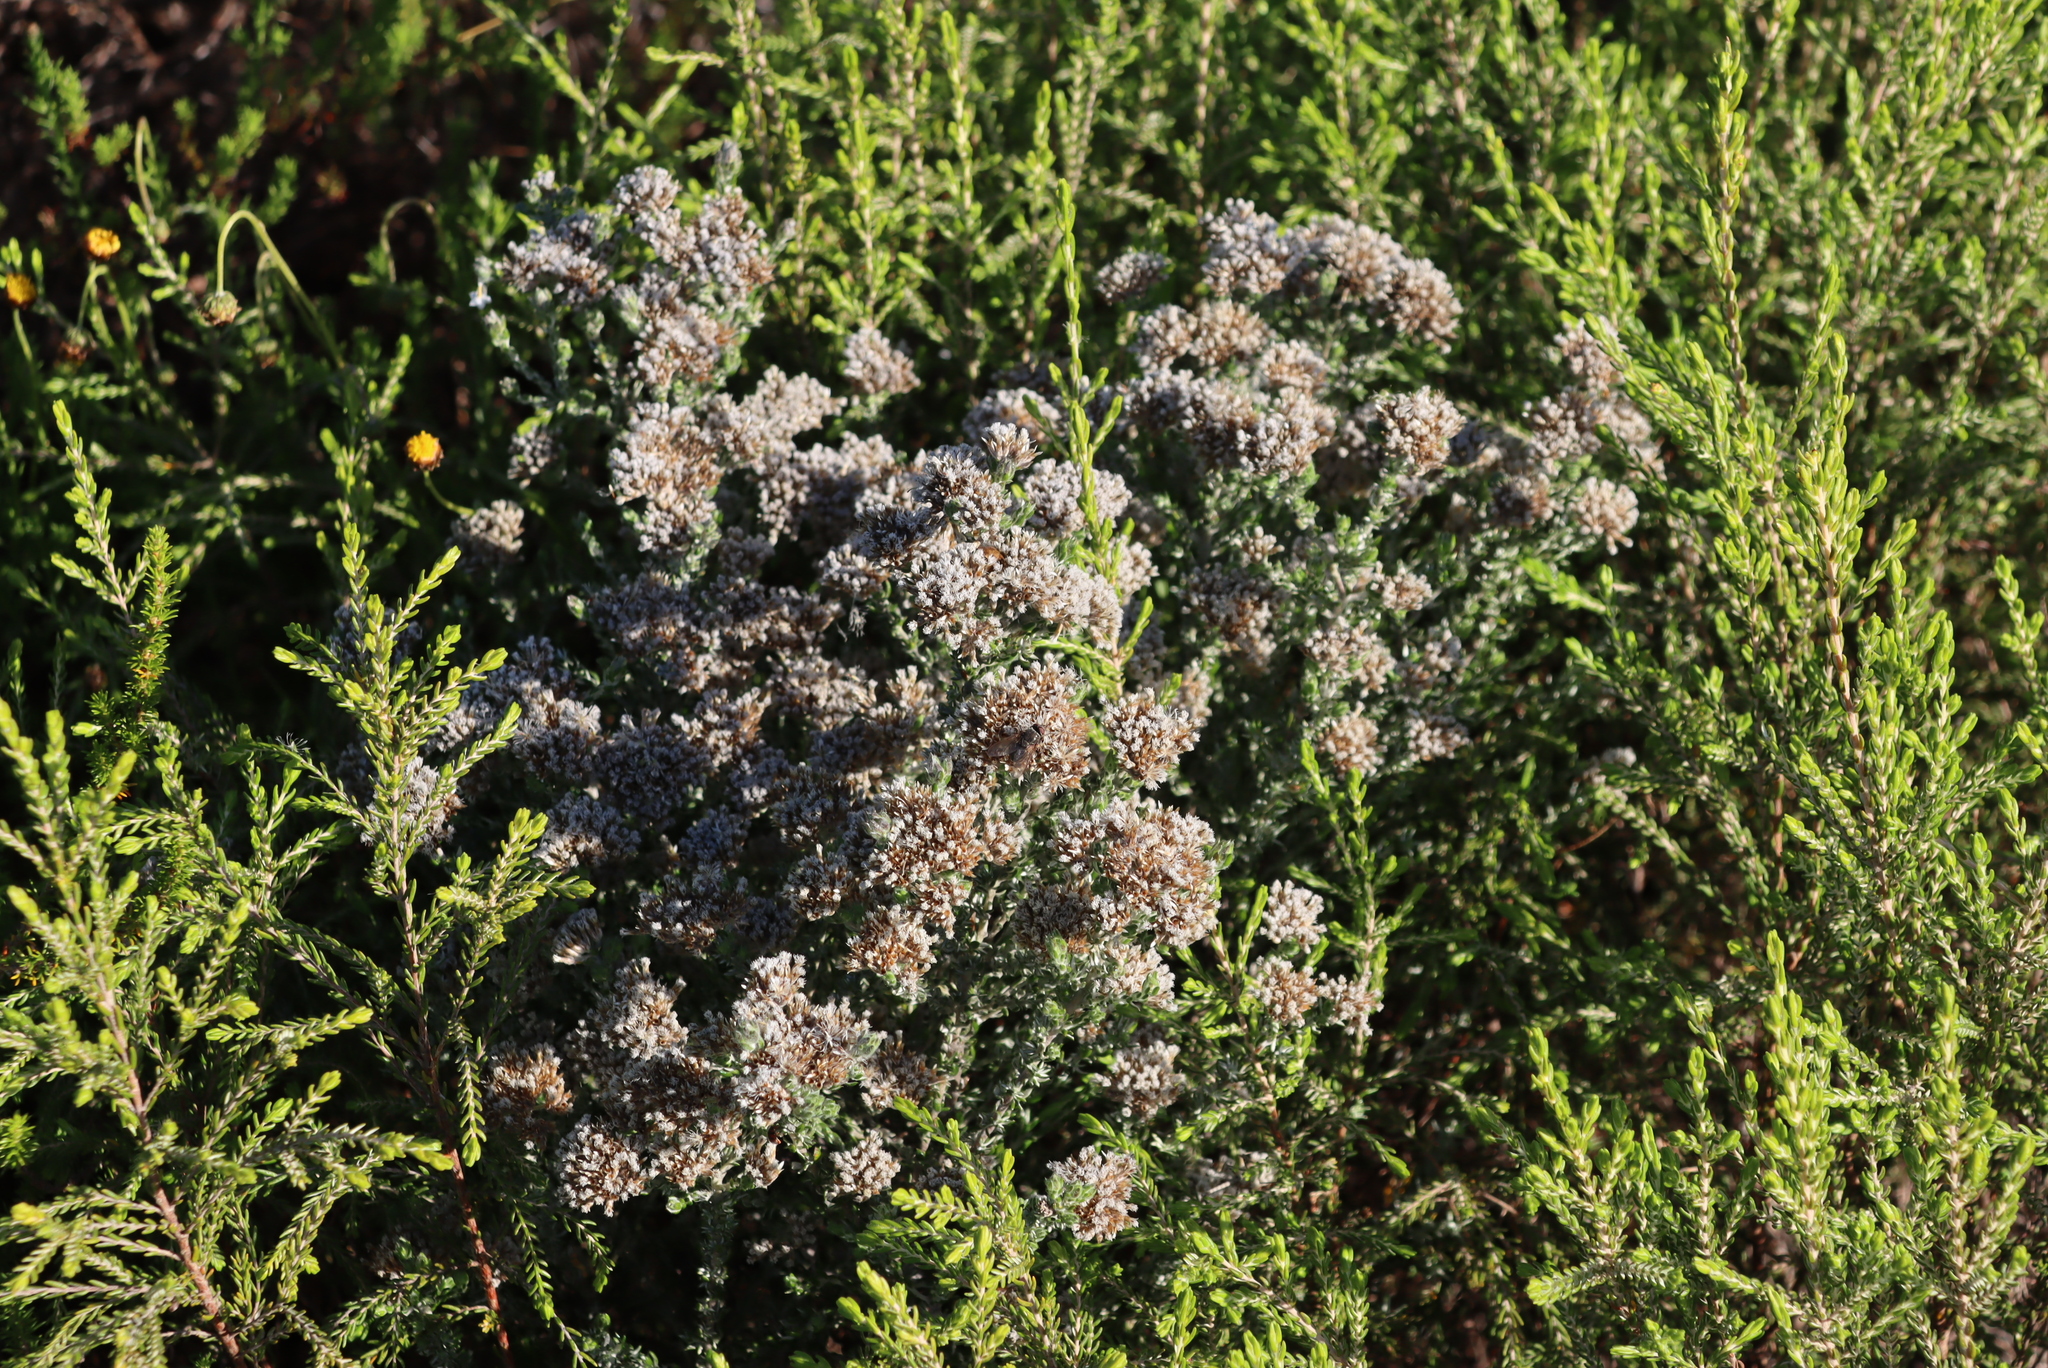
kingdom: Plantae
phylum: Tracheophyta
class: Magnoliopsida
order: Asterales
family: Asteraceae
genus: Metalasia
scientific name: Metalasia pungens
